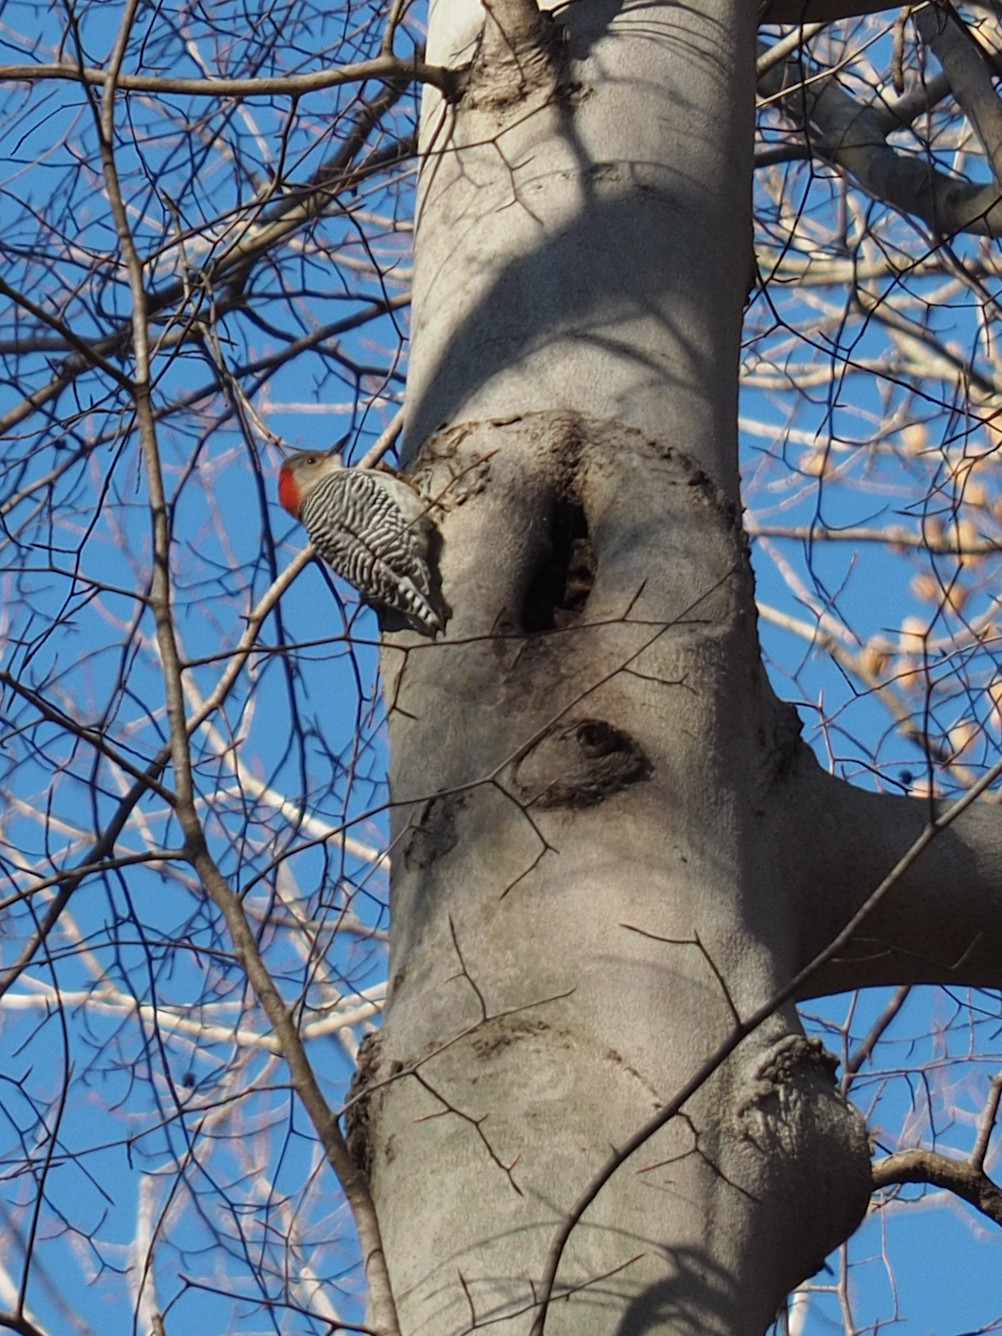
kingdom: Animalia
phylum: Chordata
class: Aves
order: Piciformes
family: Picidae
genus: Melanerpes
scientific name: Melanerpes carolinus
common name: Red-bellied woodpecker
